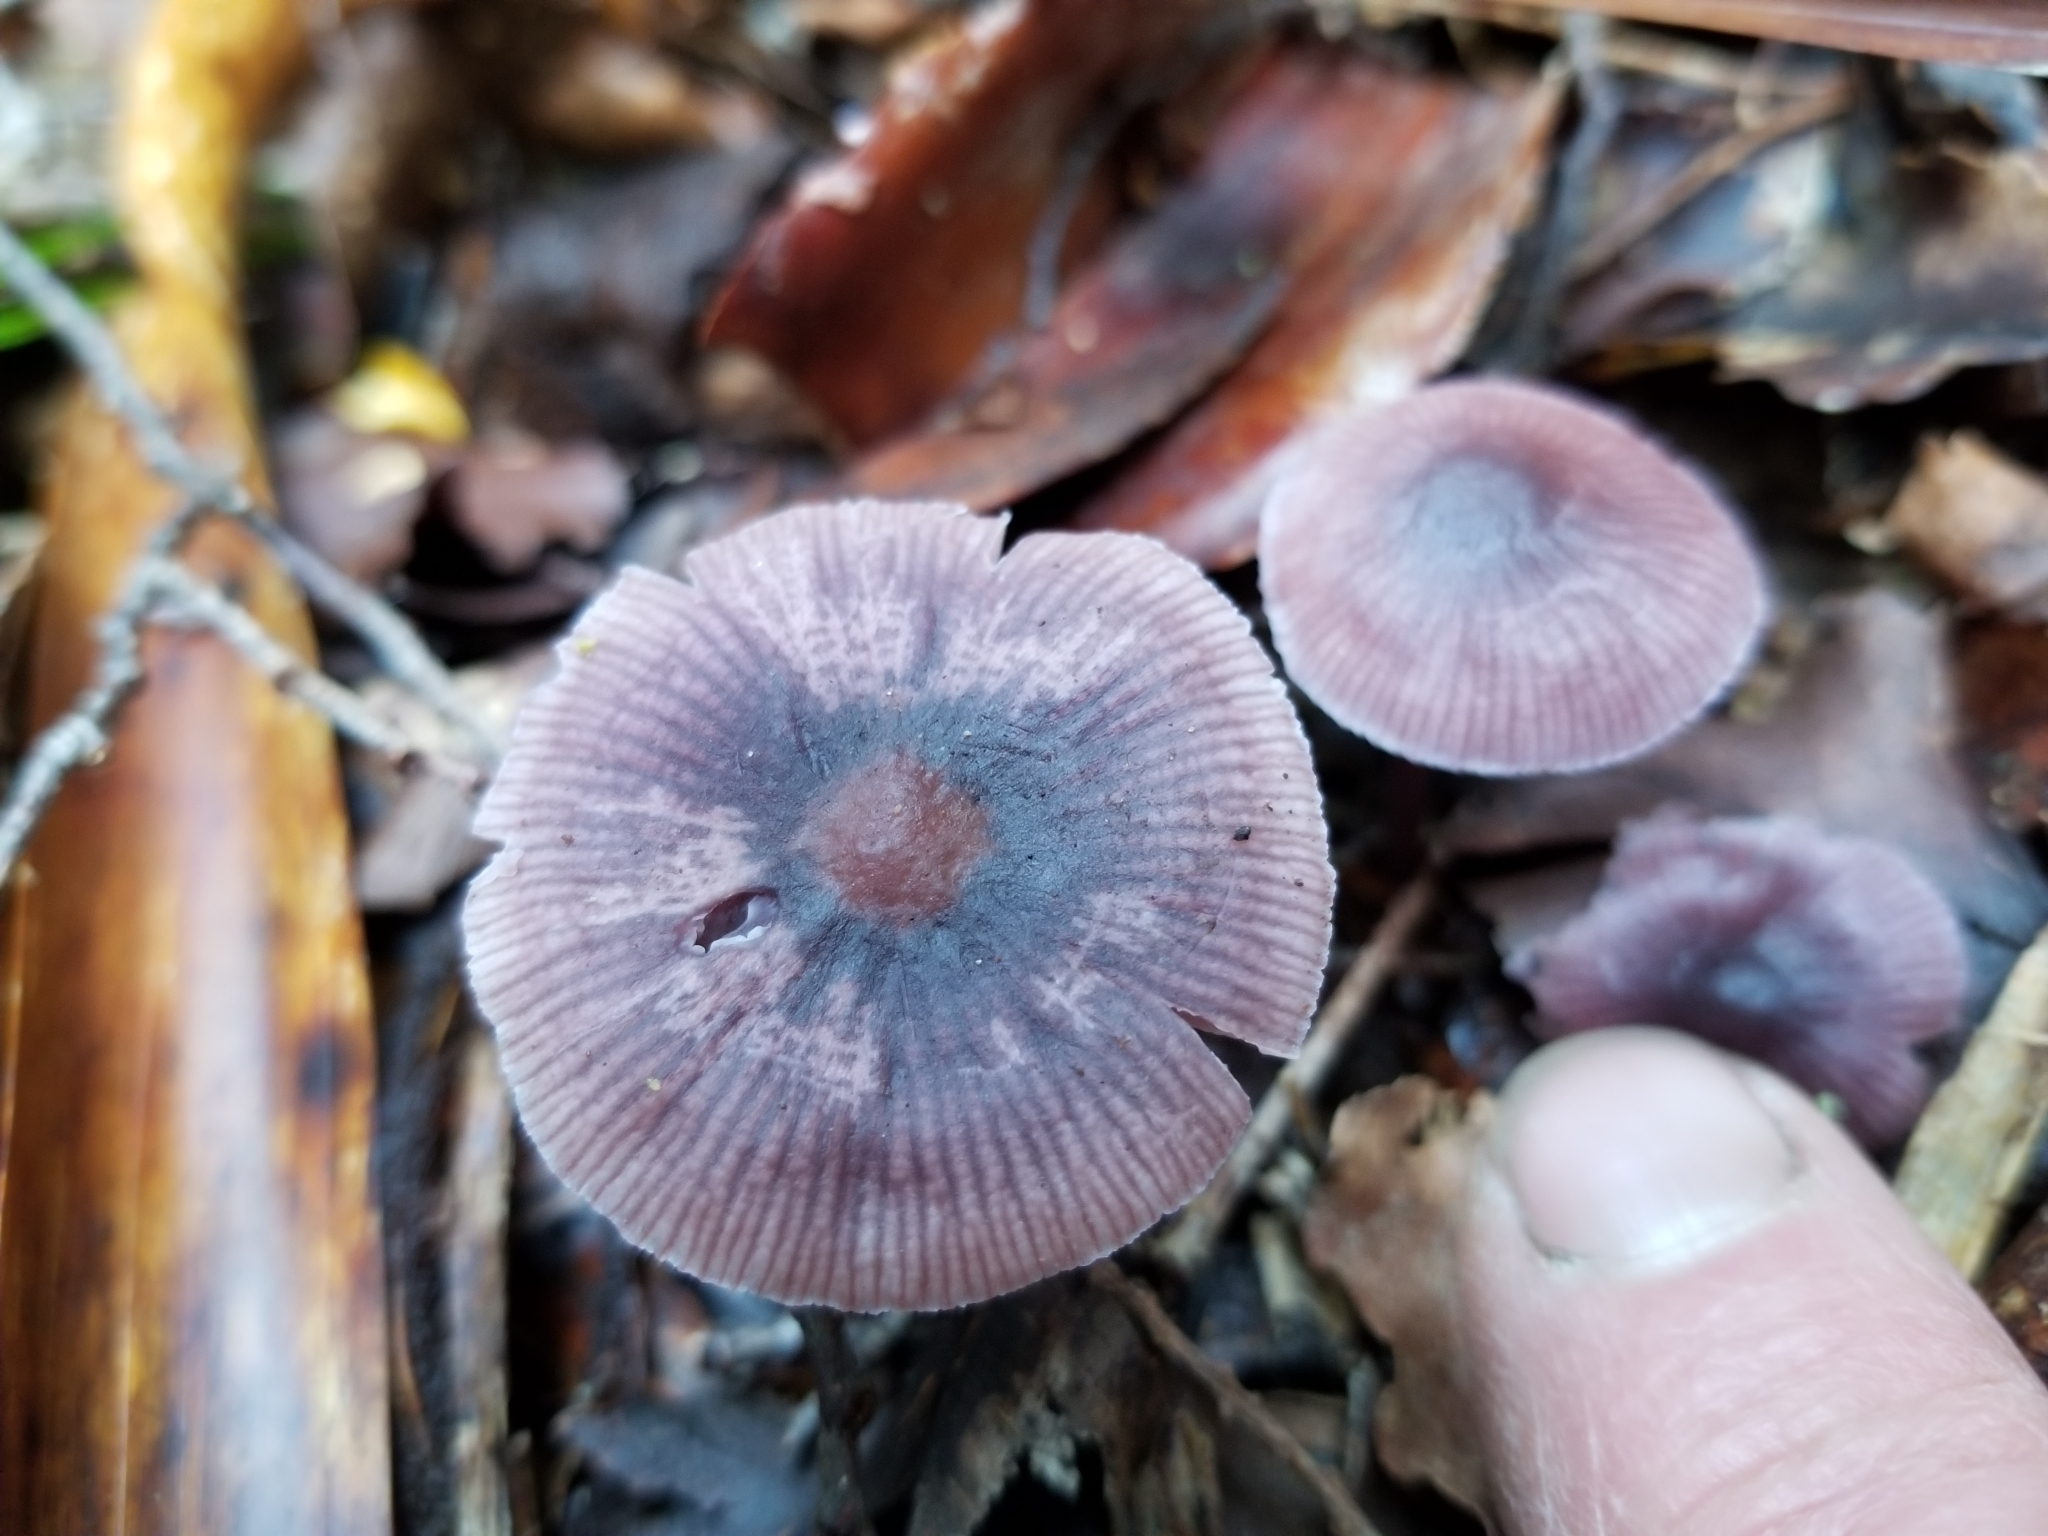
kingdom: Fungi
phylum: Basidiomycota
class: Agaricomycetes
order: Agaricales
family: Mycenaceae
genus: Mycena
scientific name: Mycena
